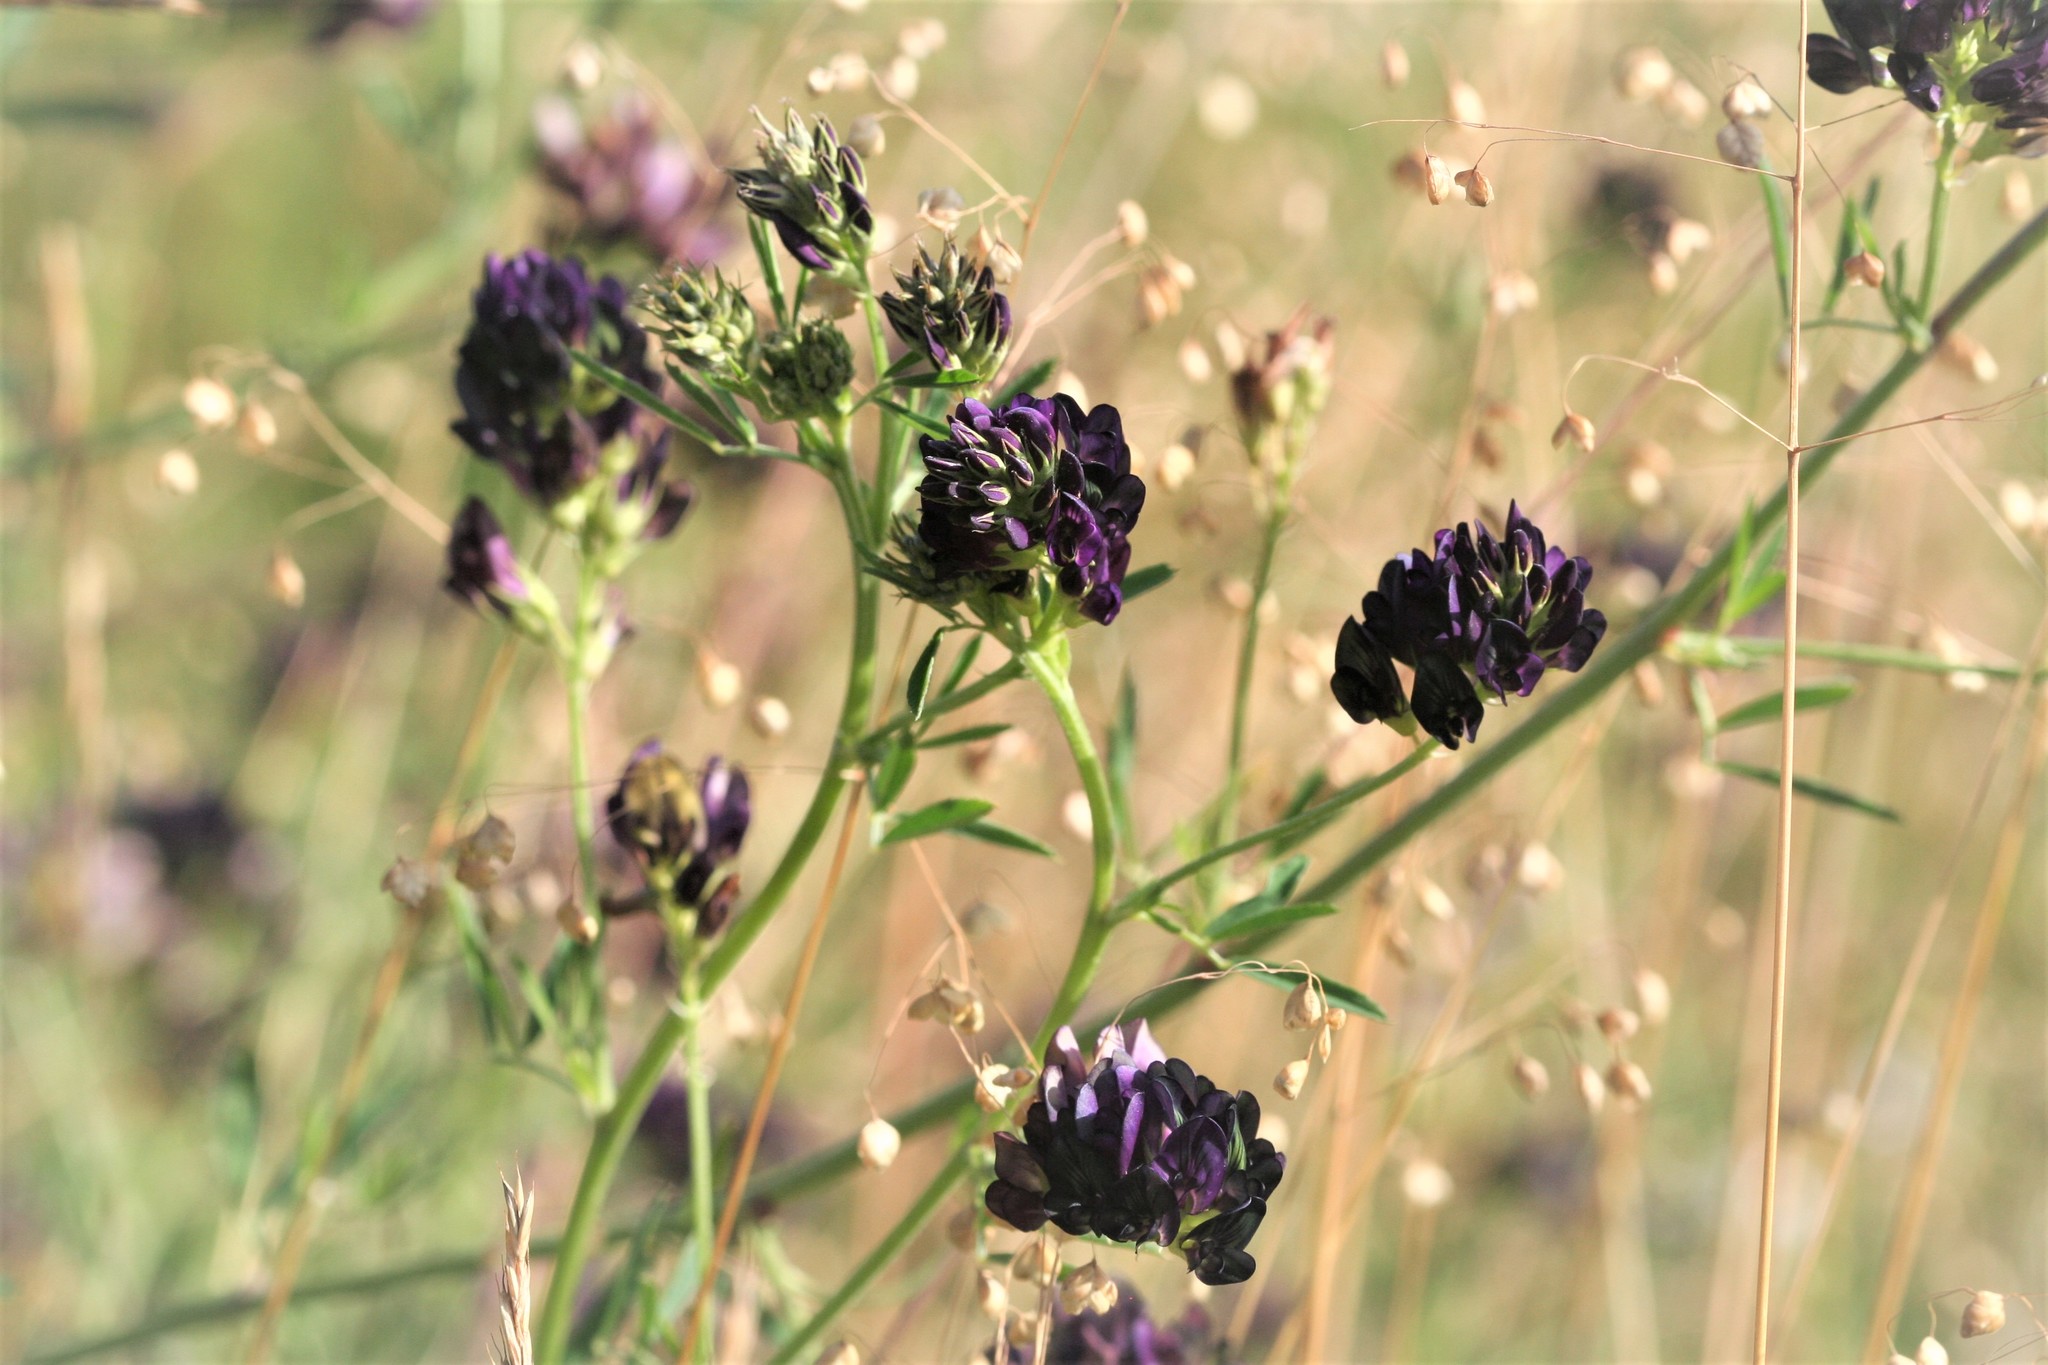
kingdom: Plantae
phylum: Tracheophyta
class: Magnoliopsida
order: Fabales
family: Fabaceae
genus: Medicago
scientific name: Medicago sativa
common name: Alfalfa
